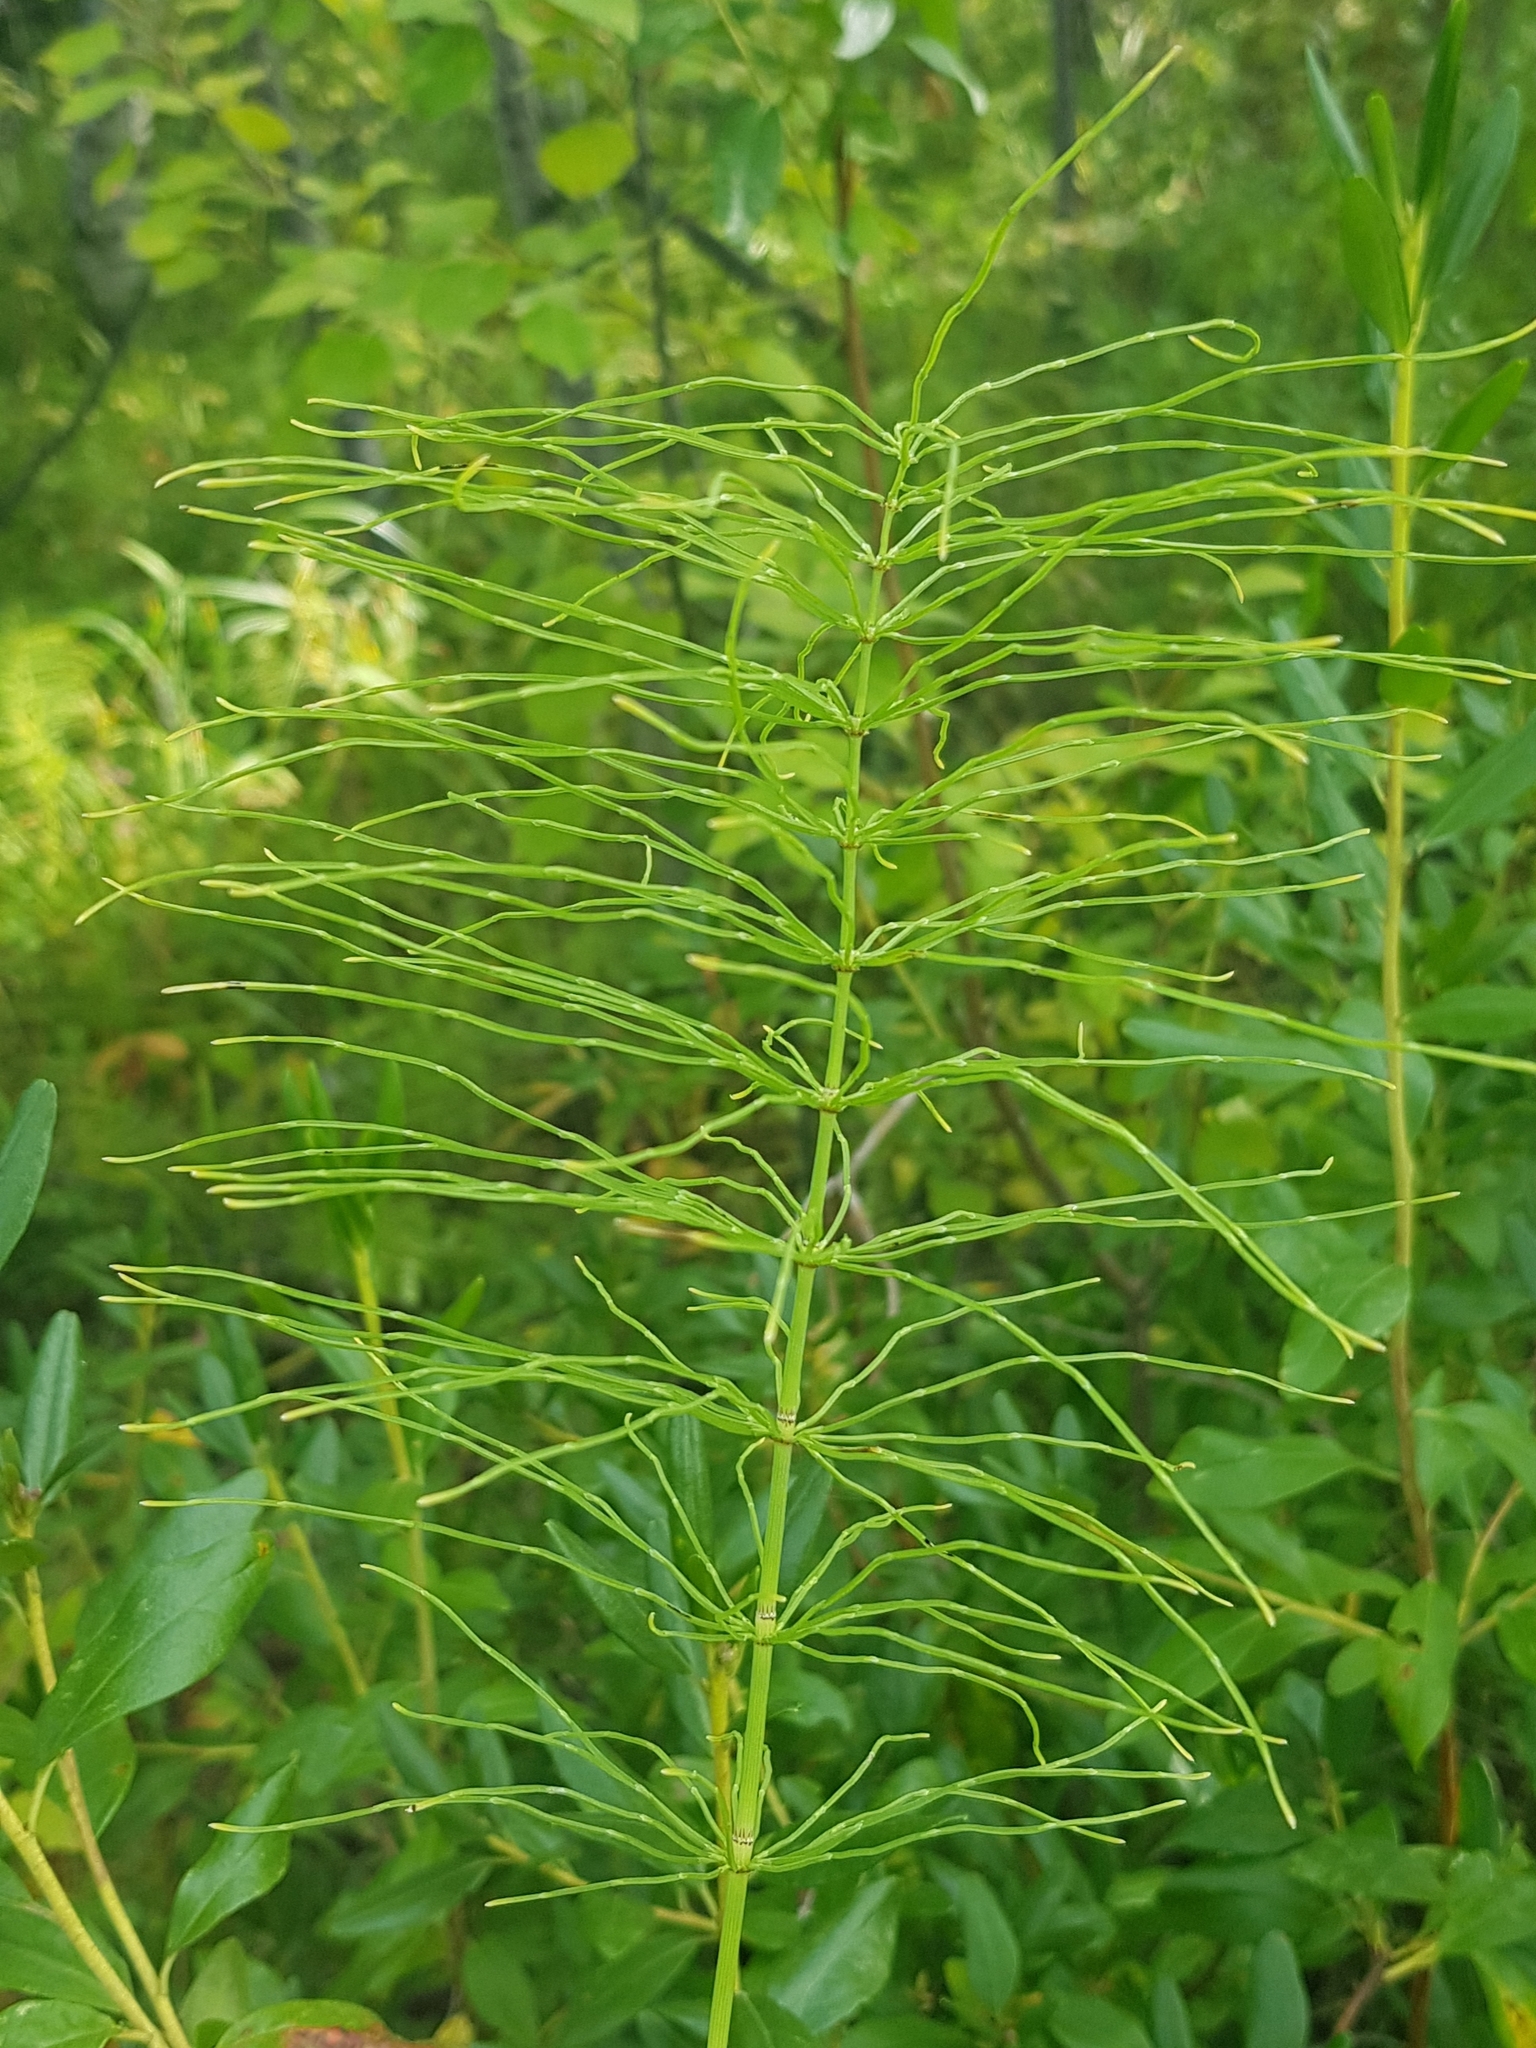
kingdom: Plantae
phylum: Tracheophyta
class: Polypodiopsida
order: Equisetales
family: Equisetaceae
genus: Equisetum
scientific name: Equisetum pratense
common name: Meadow horsetail
